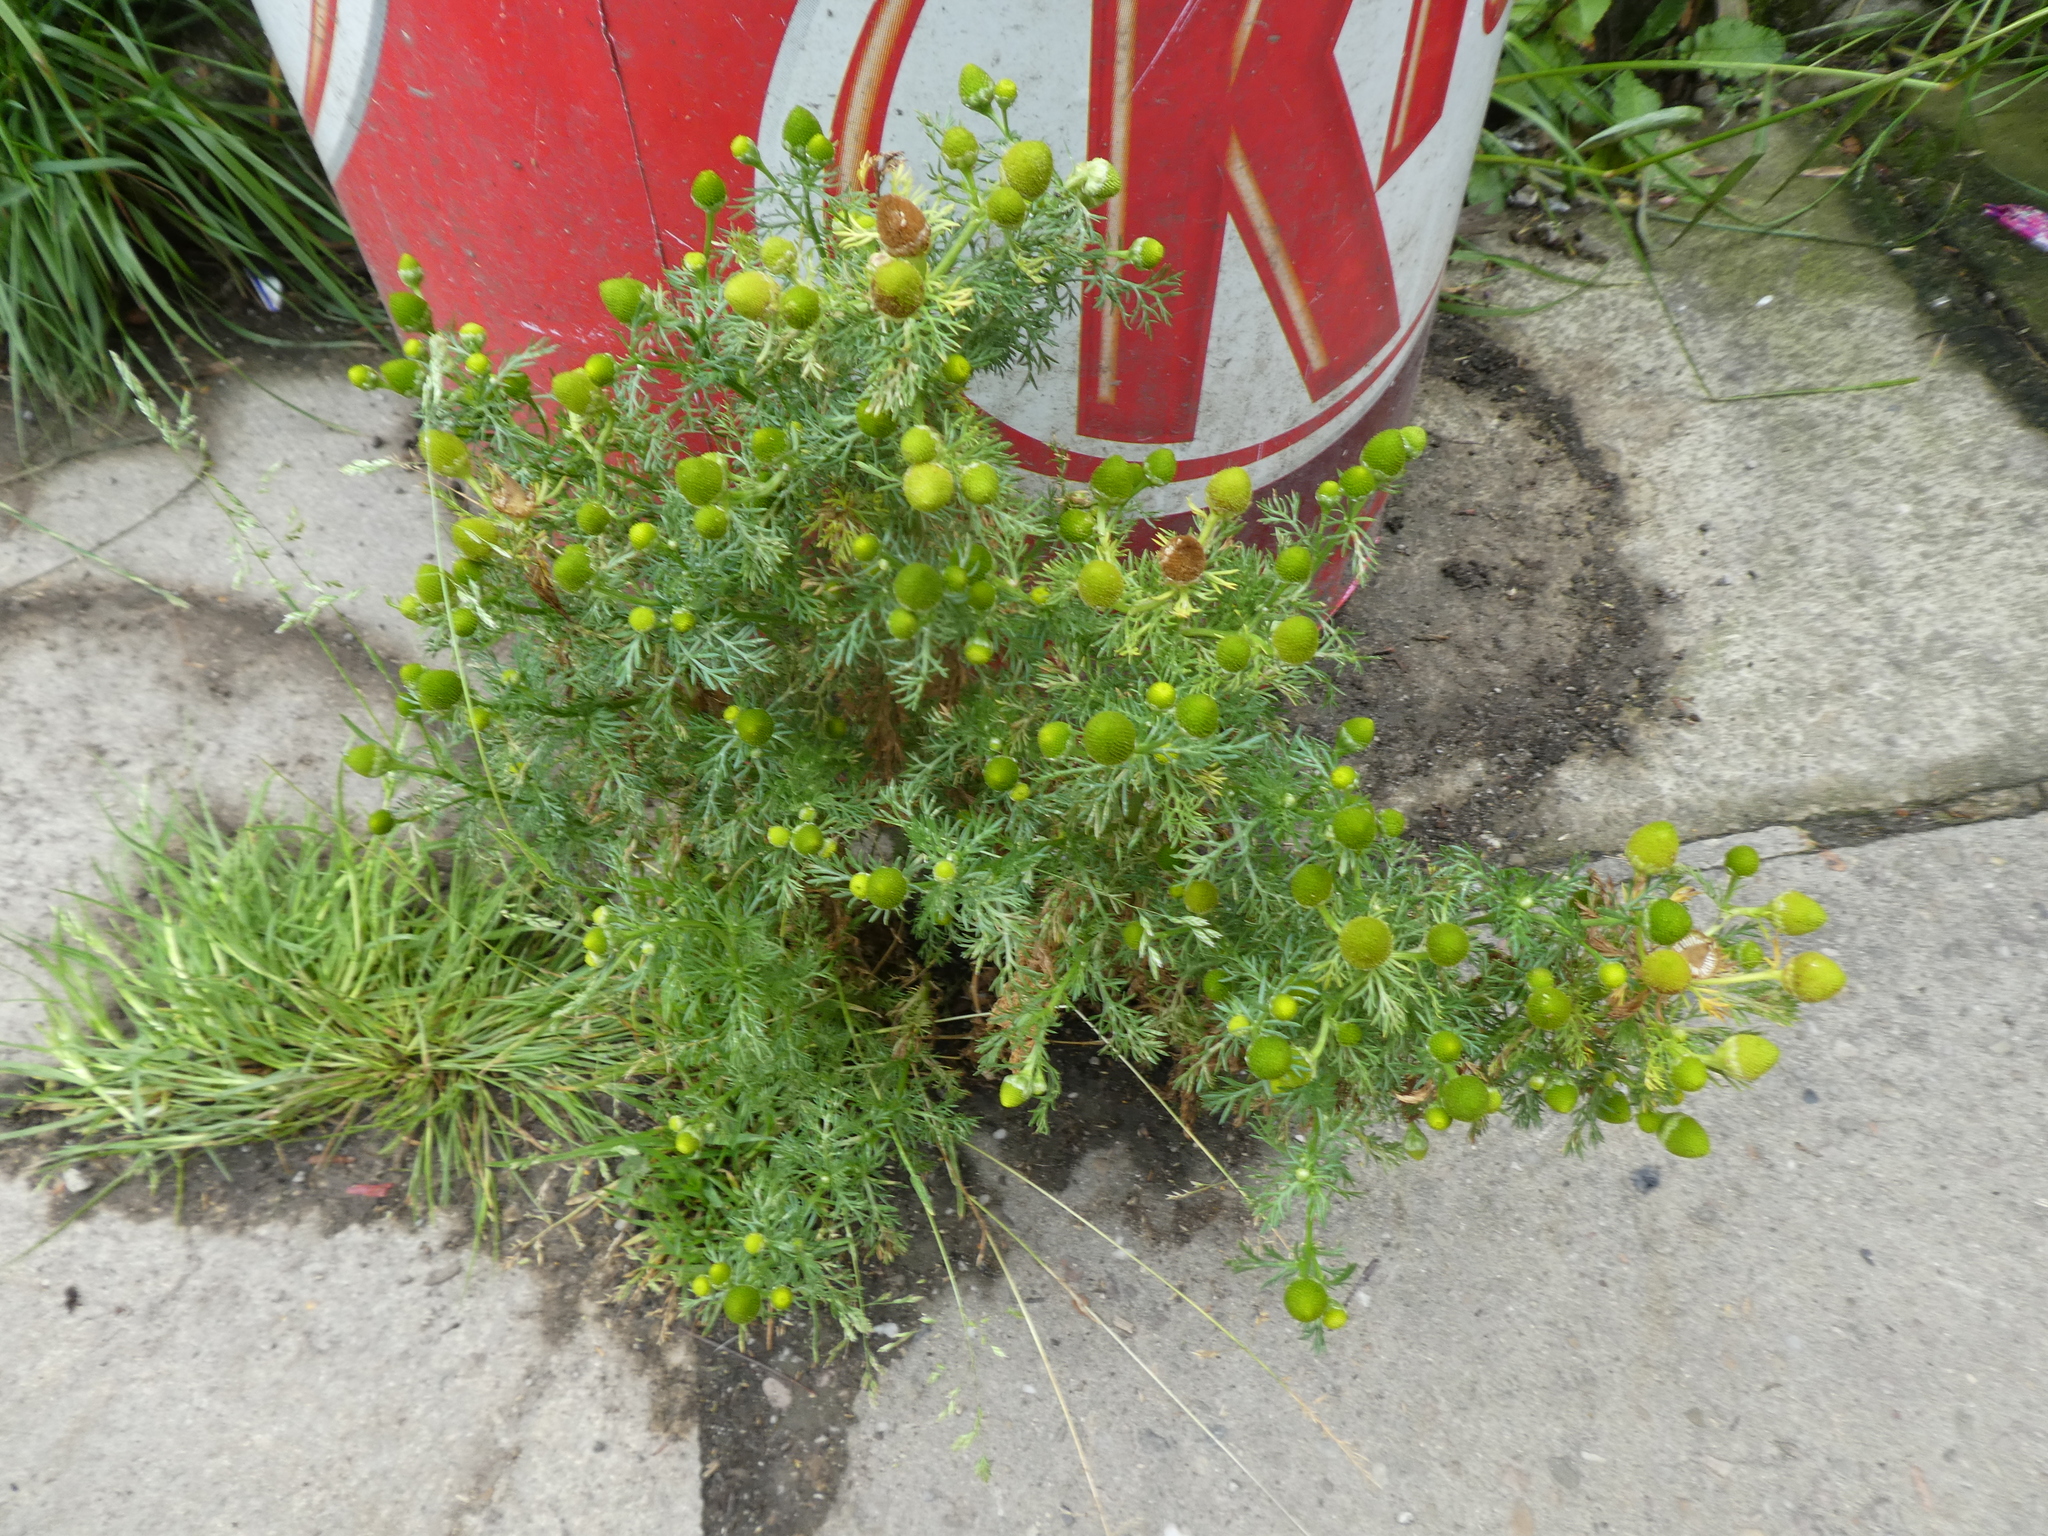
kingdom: Plantae
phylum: Tracheophyta
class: Magnoliopsida
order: Asterales
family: Asteraceae
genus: Matricaria
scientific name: Matricaria discoidea
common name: Disc mayweed
